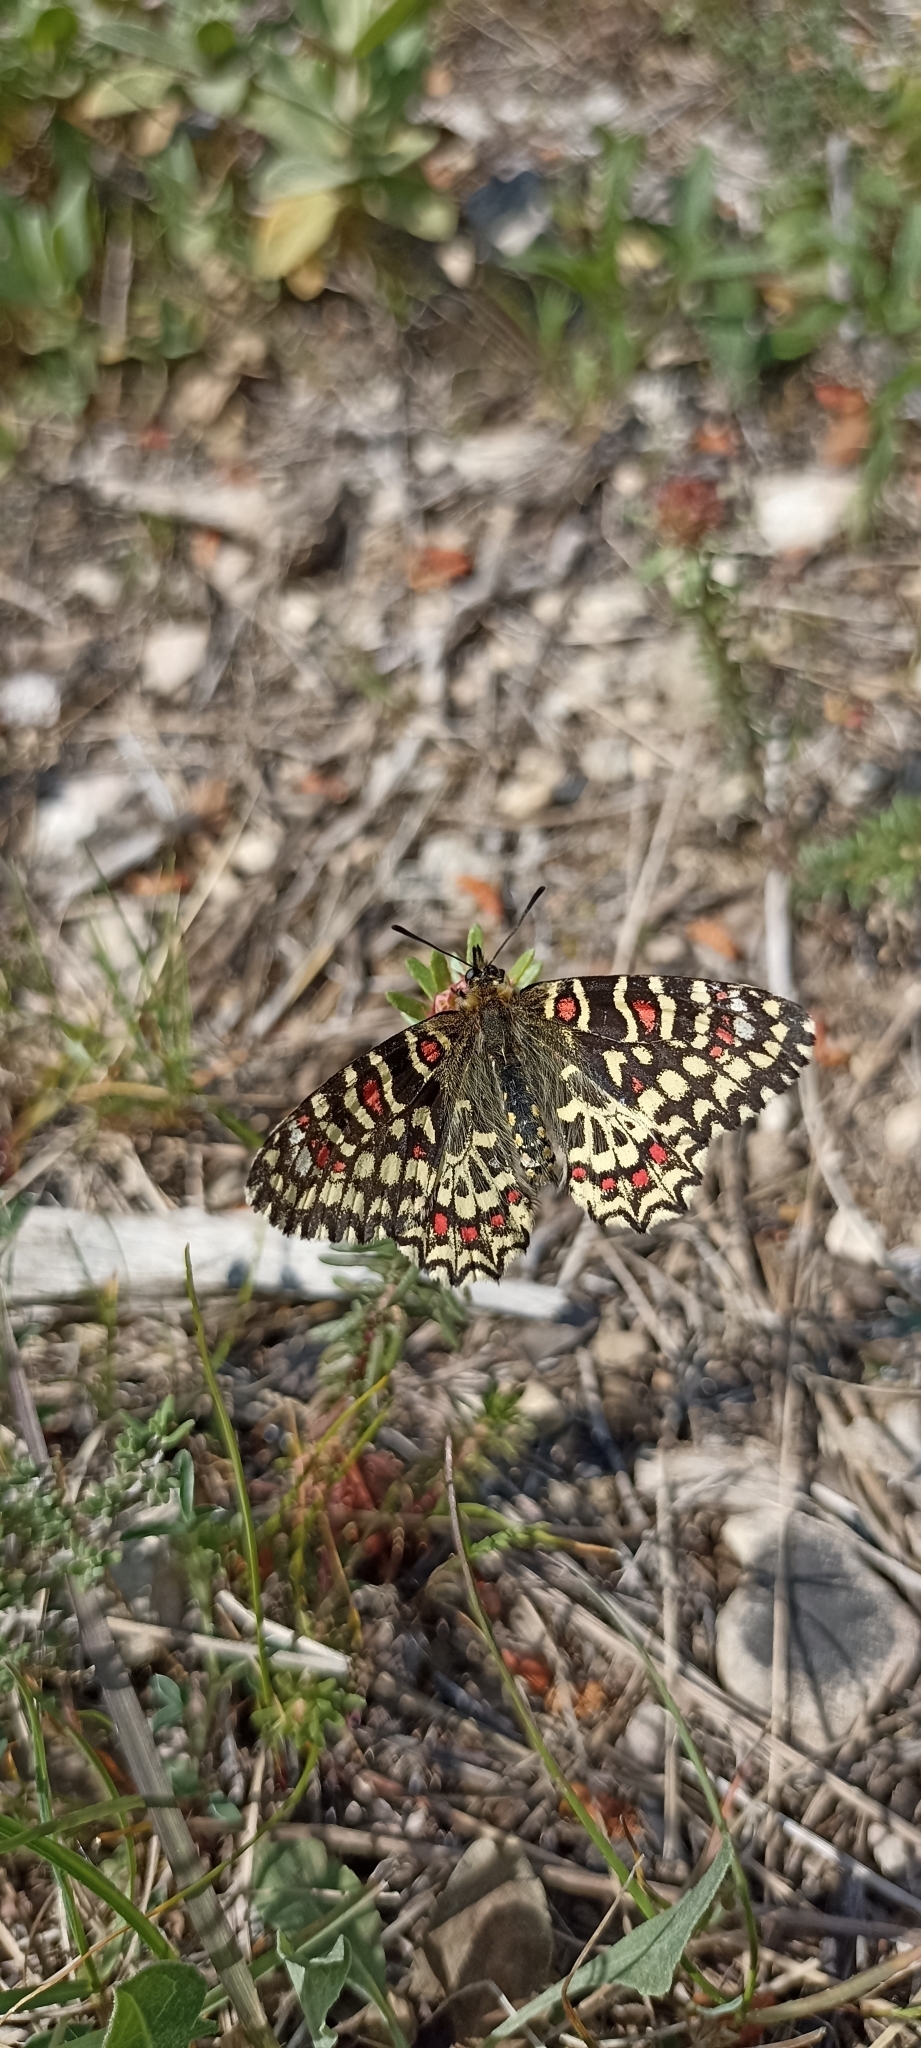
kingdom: Animalia
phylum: Arthropoda
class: Insecta
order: Lepidoptera
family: Papilionidae
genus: Zerynthia
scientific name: Zerynthia rumina
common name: Spanish festoon
